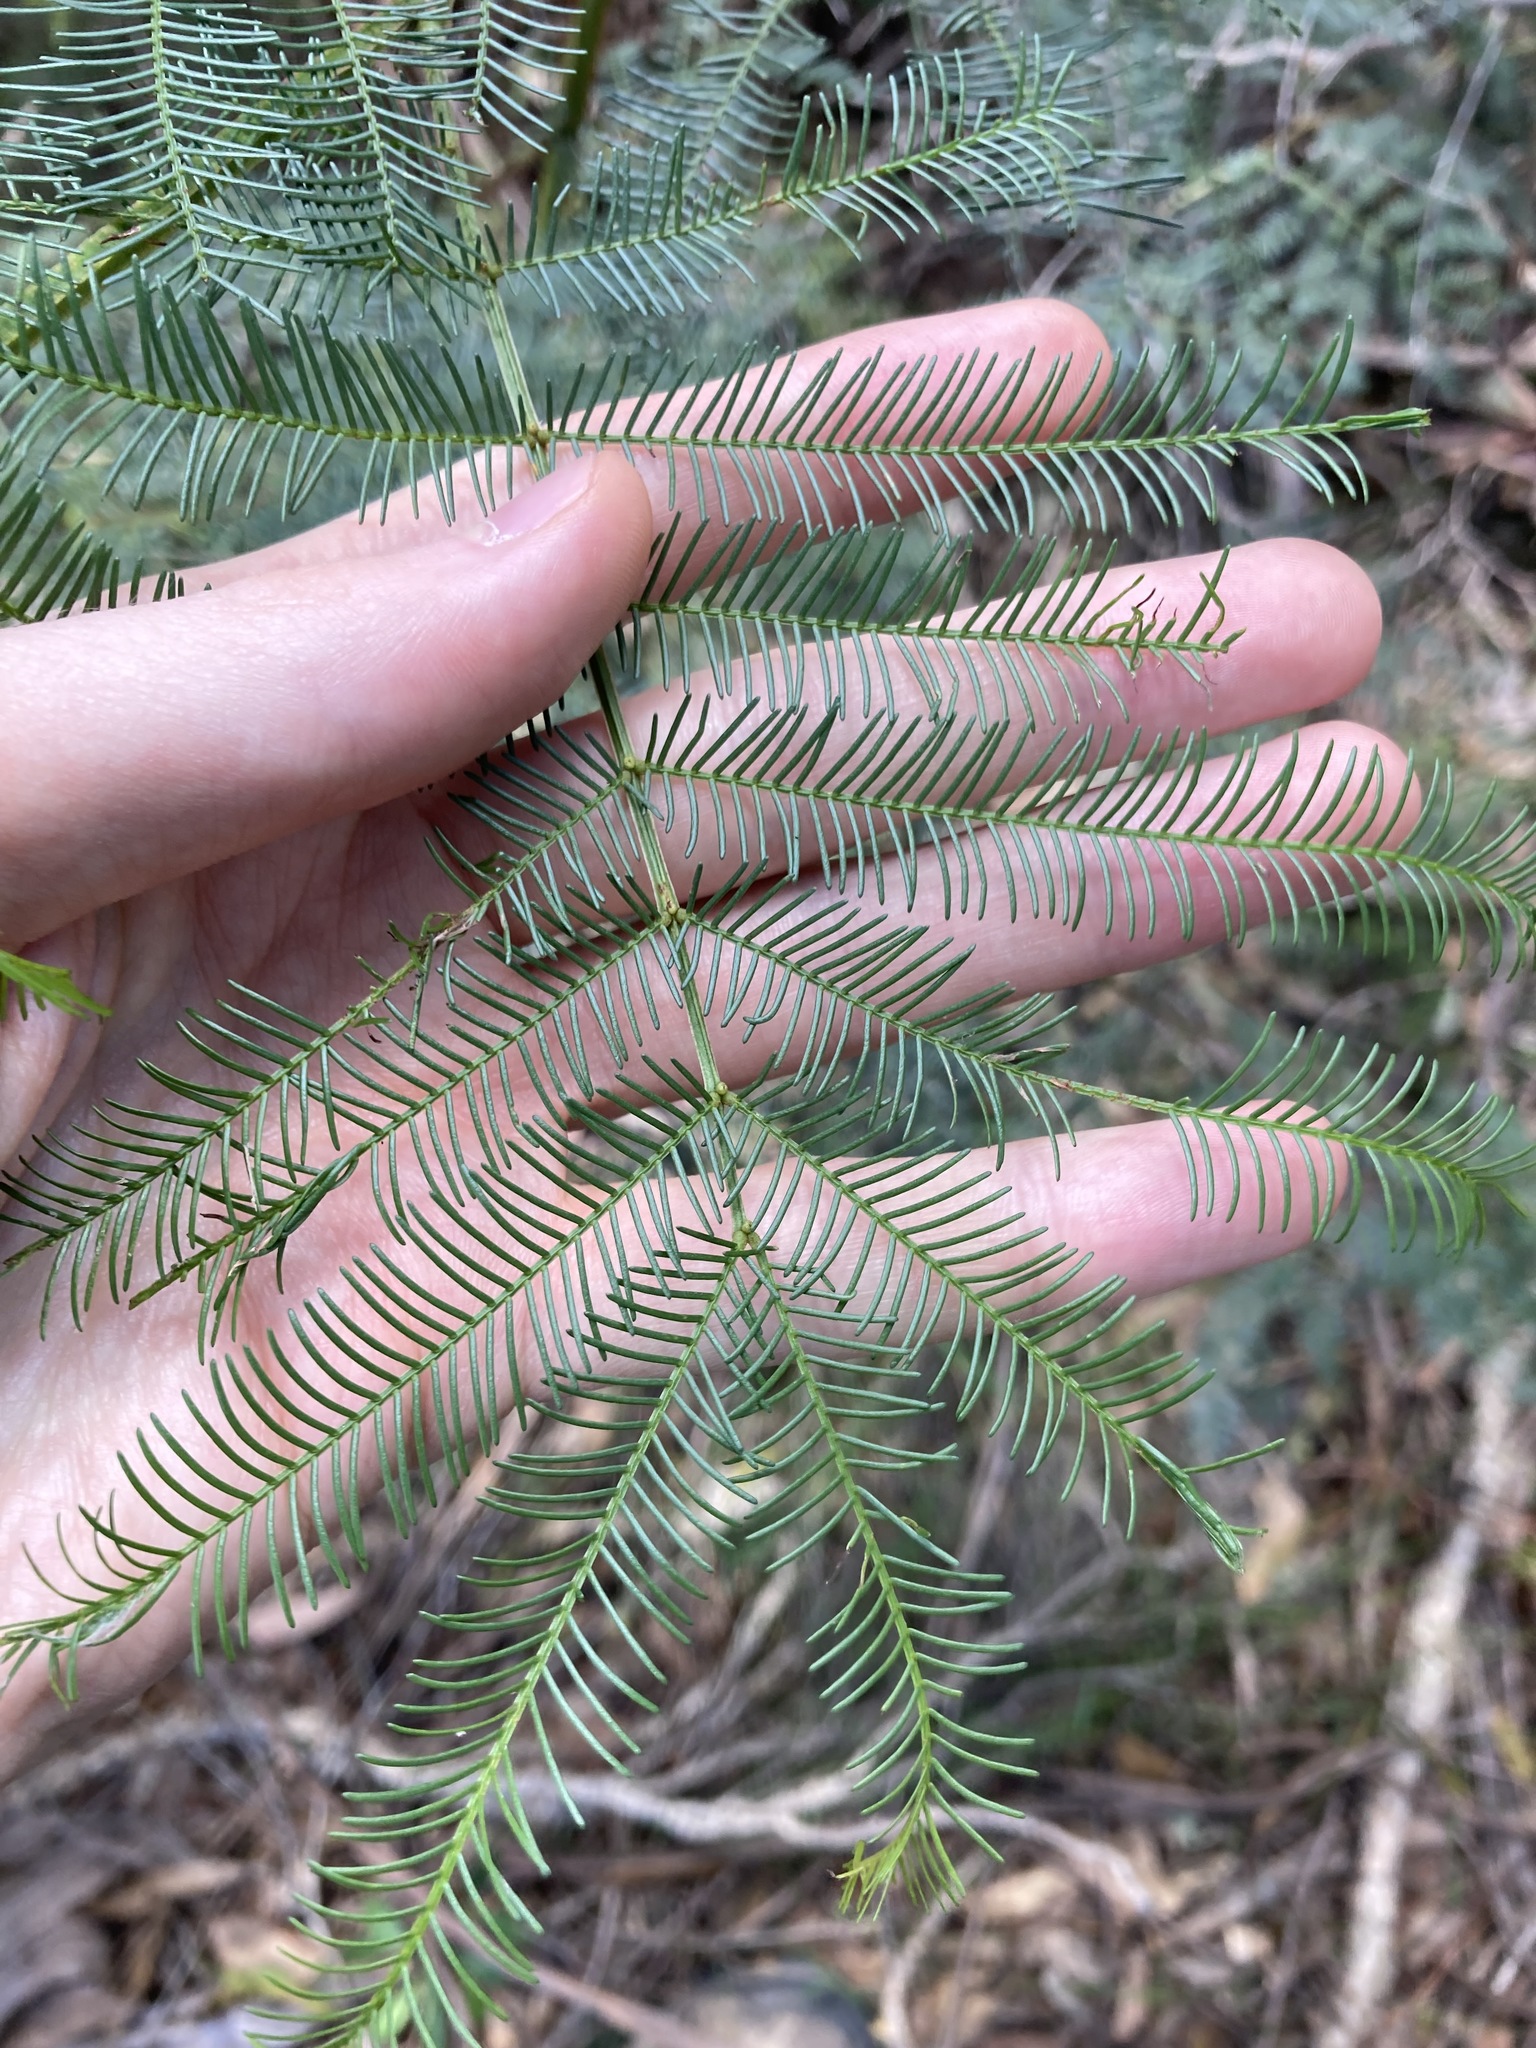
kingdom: Plantae
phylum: Tracheophyta
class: Magnoliopsida
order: Fabales
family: Fabaceae
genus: Acacia
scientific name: Acacia decurrens
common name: Green wattle
